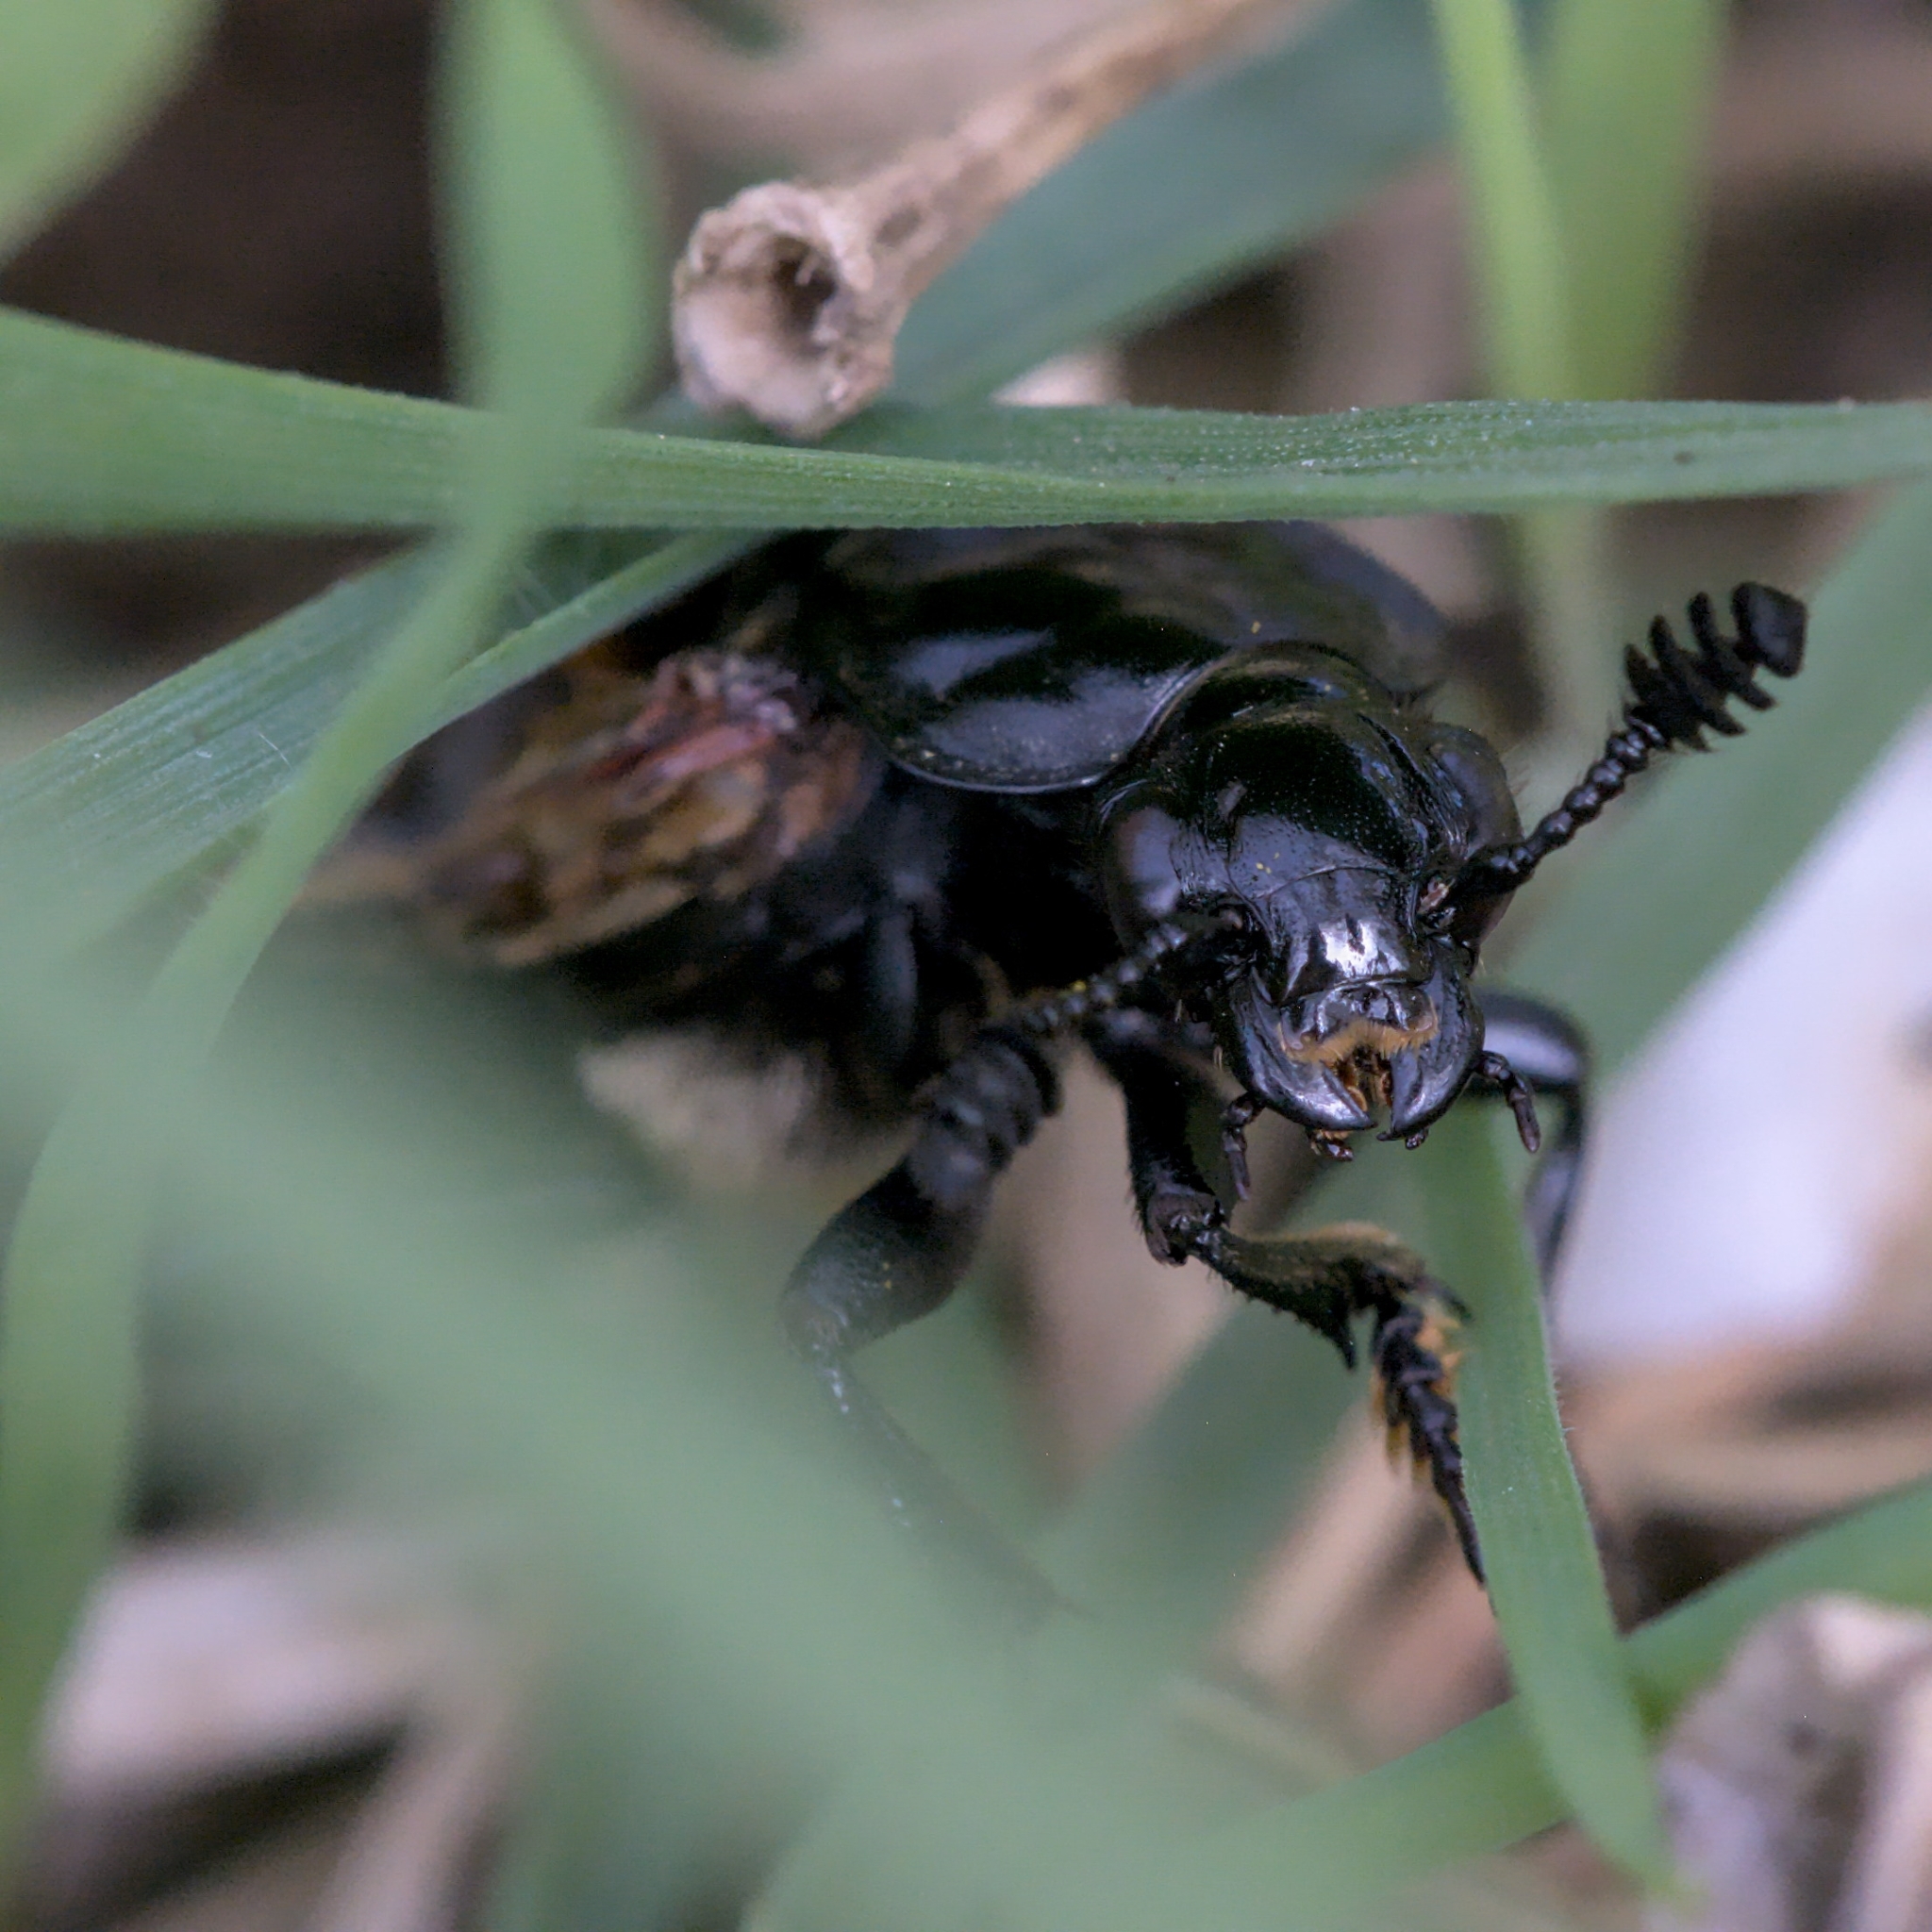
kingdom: Animalia
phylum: Arthropoda
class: Insecta
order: Coleoptera
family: Staphylinidae
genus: Nicrophorus
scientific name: Nicrophorus vespilloides
